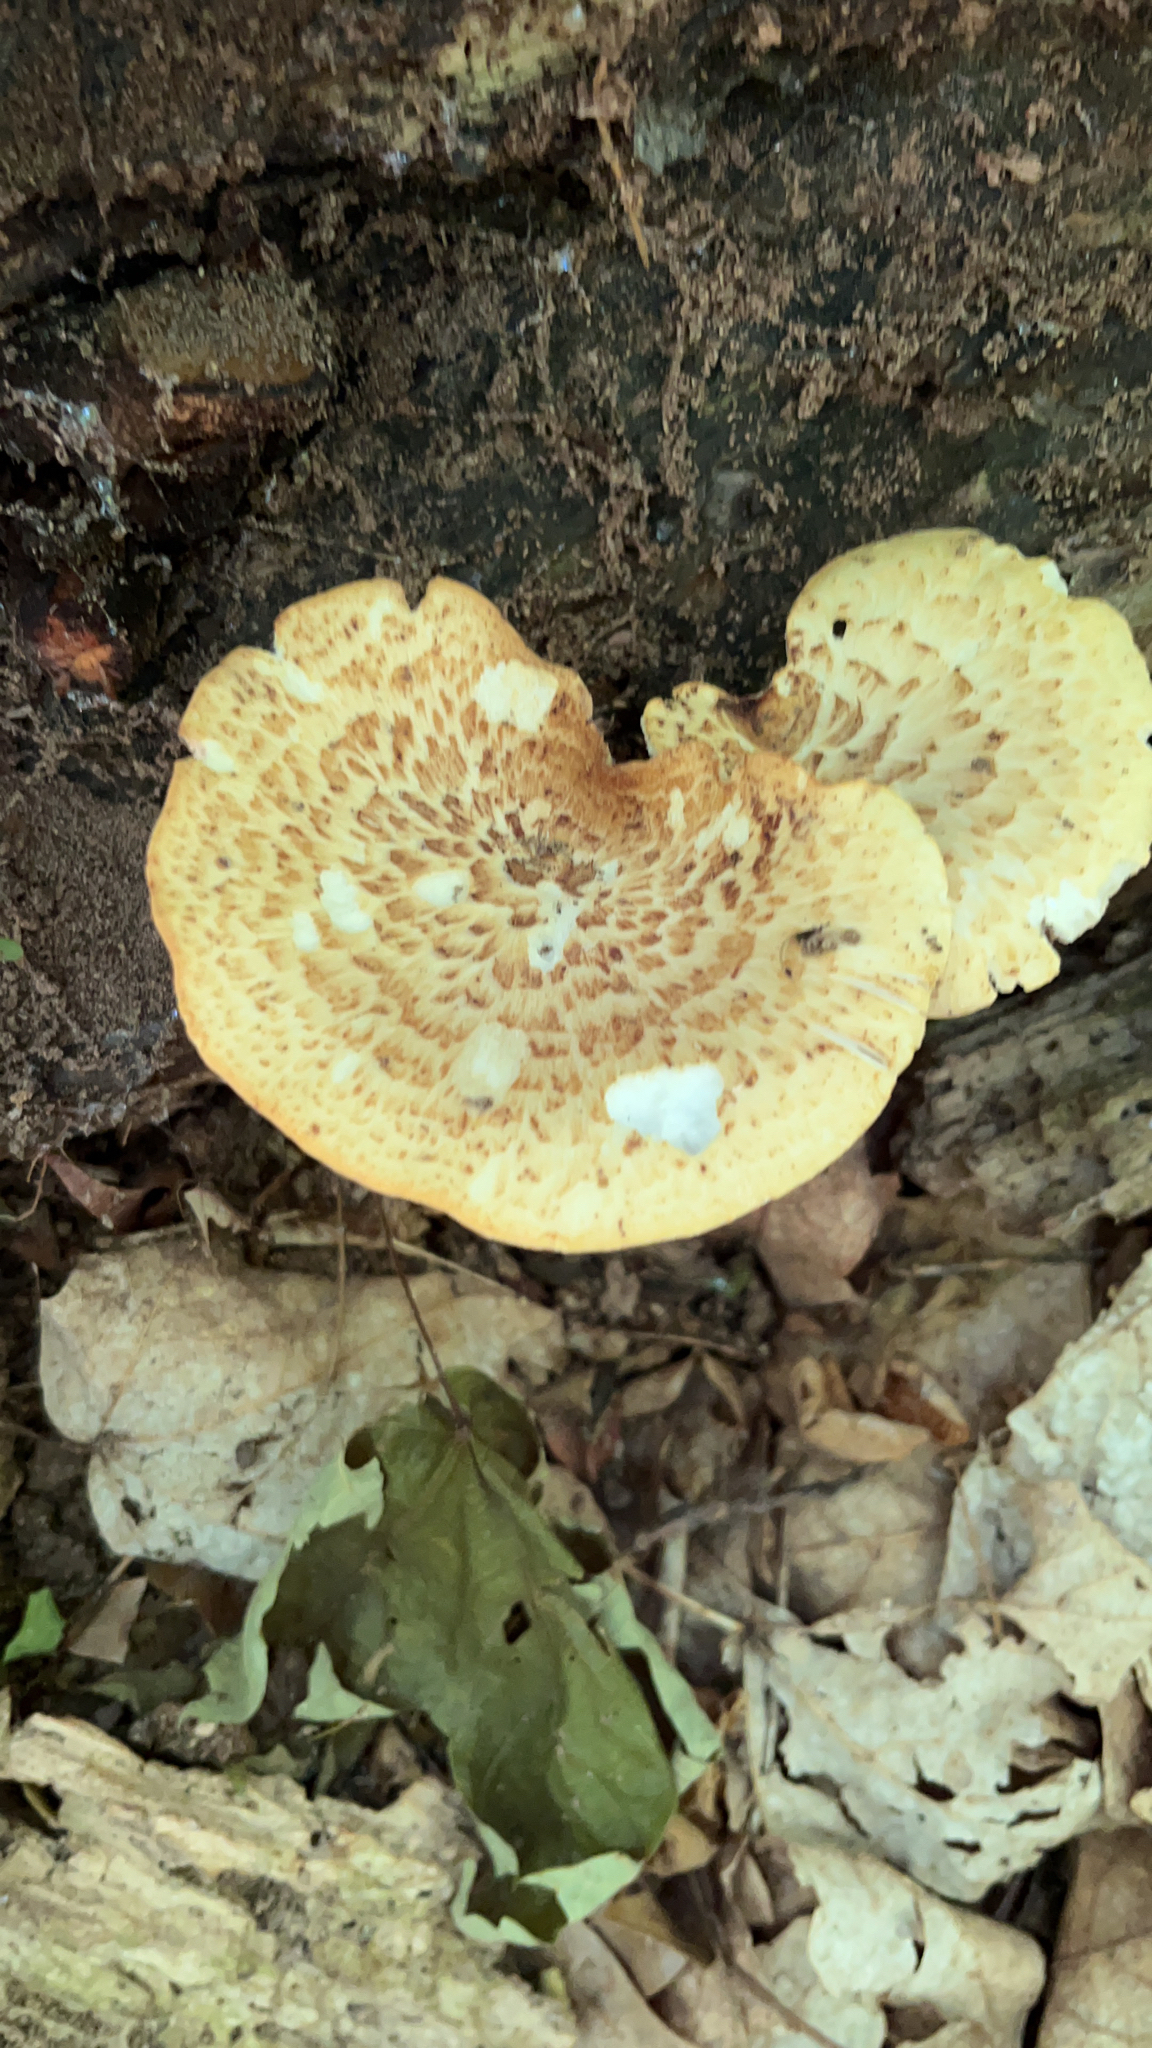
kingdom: Fungi
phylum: Basidiomycota
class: Agaricomycetes
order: Polyporales
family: Polyporaceae
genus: Cerioporus
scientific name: Cerioporus squamosus
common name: Dryad's saddle
